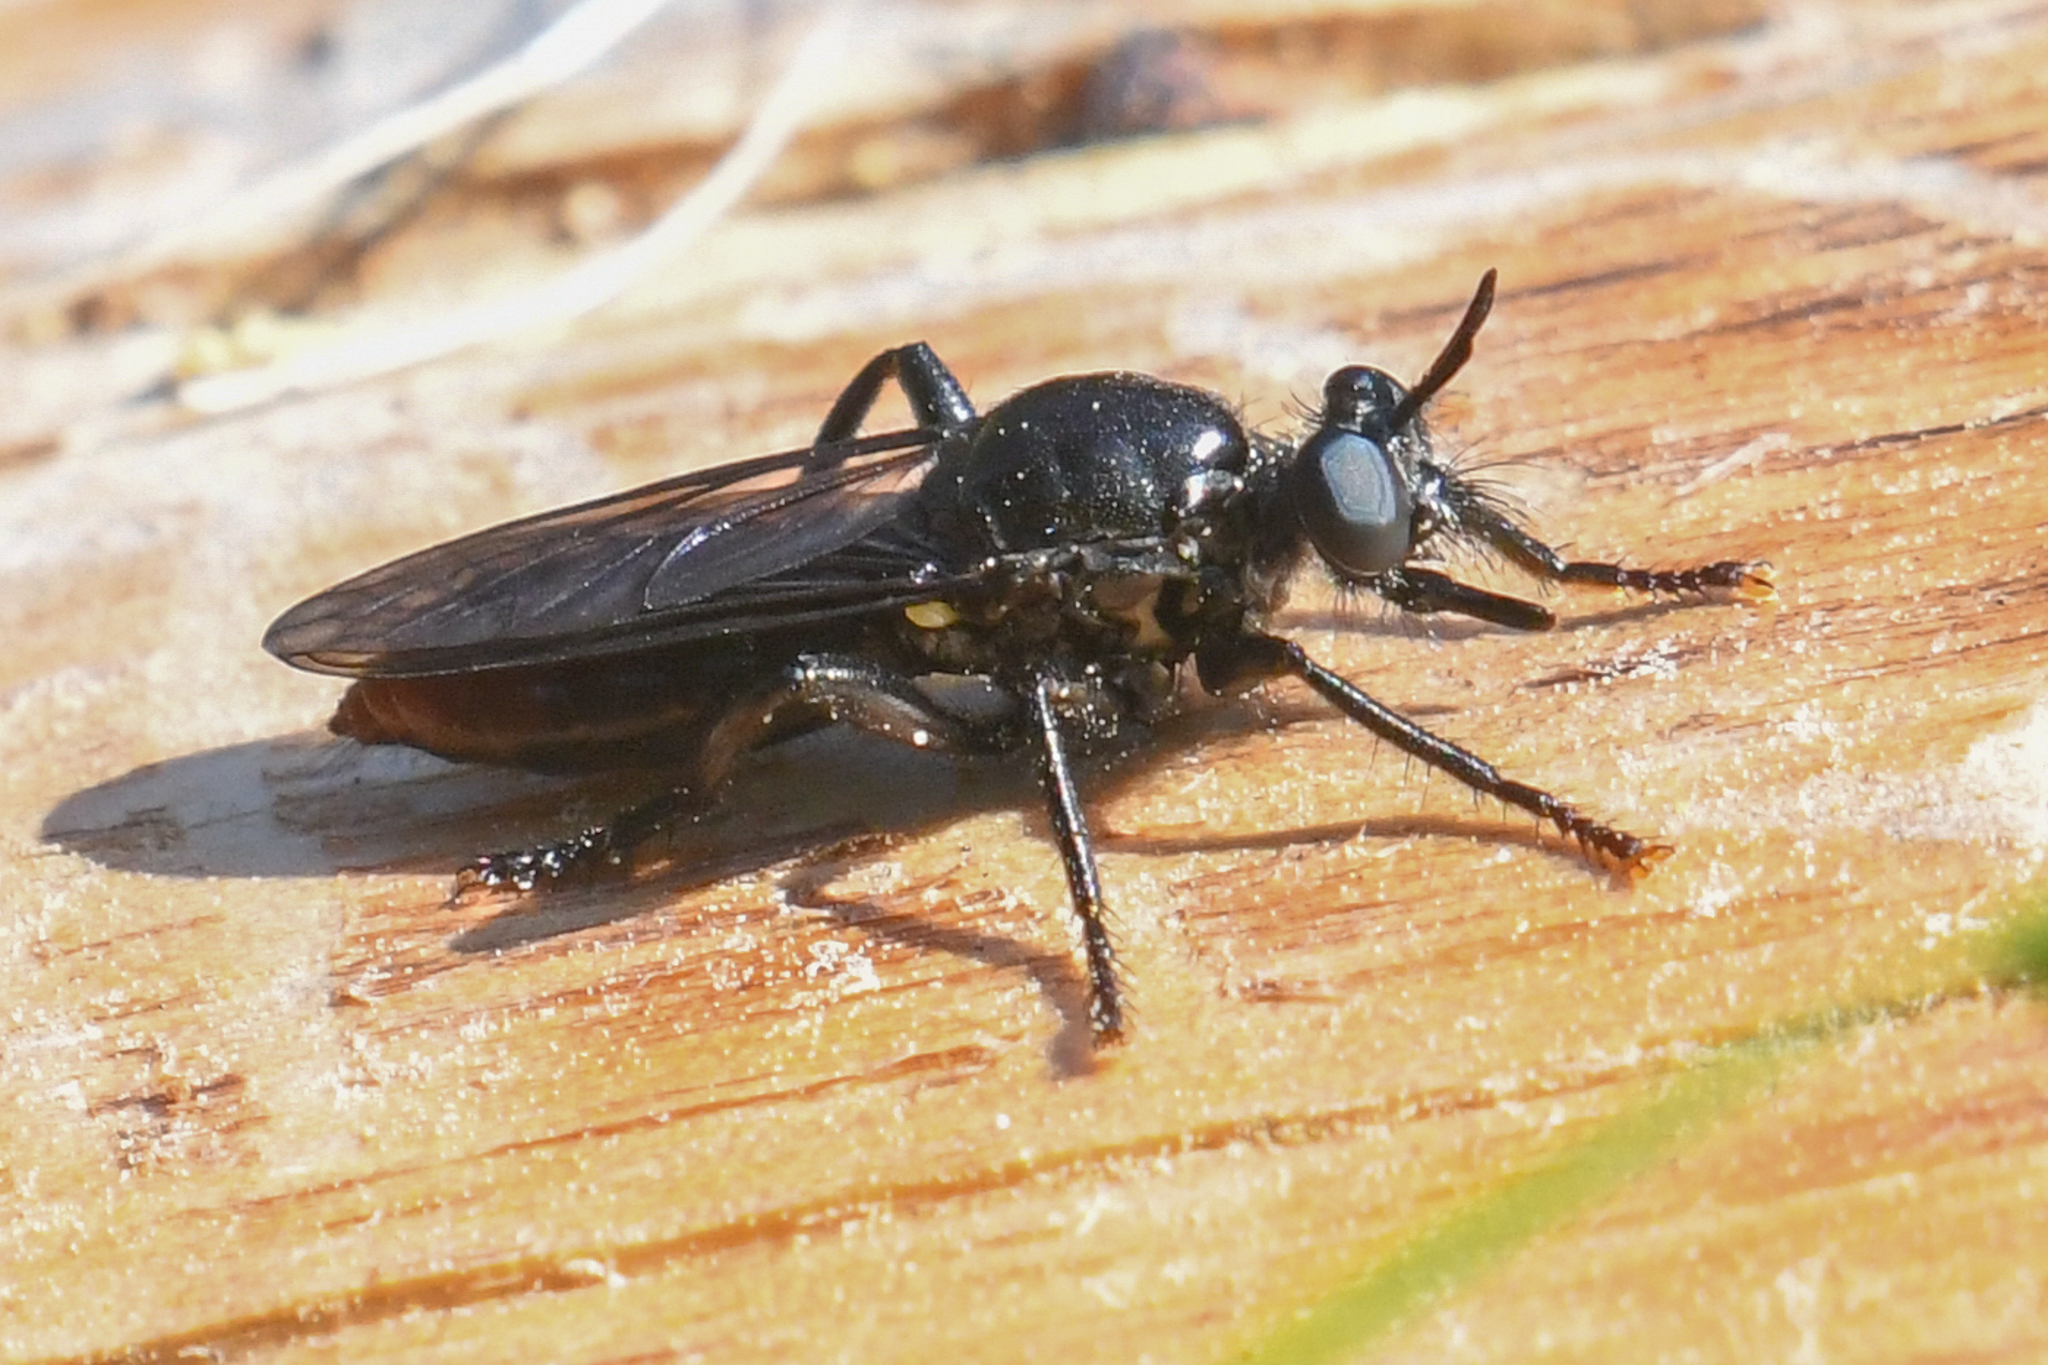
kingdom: Animalia
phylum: Arthropoda
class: Insecta
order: Diptera
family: Asilidae
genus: Laphria
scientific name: Laphria felis
